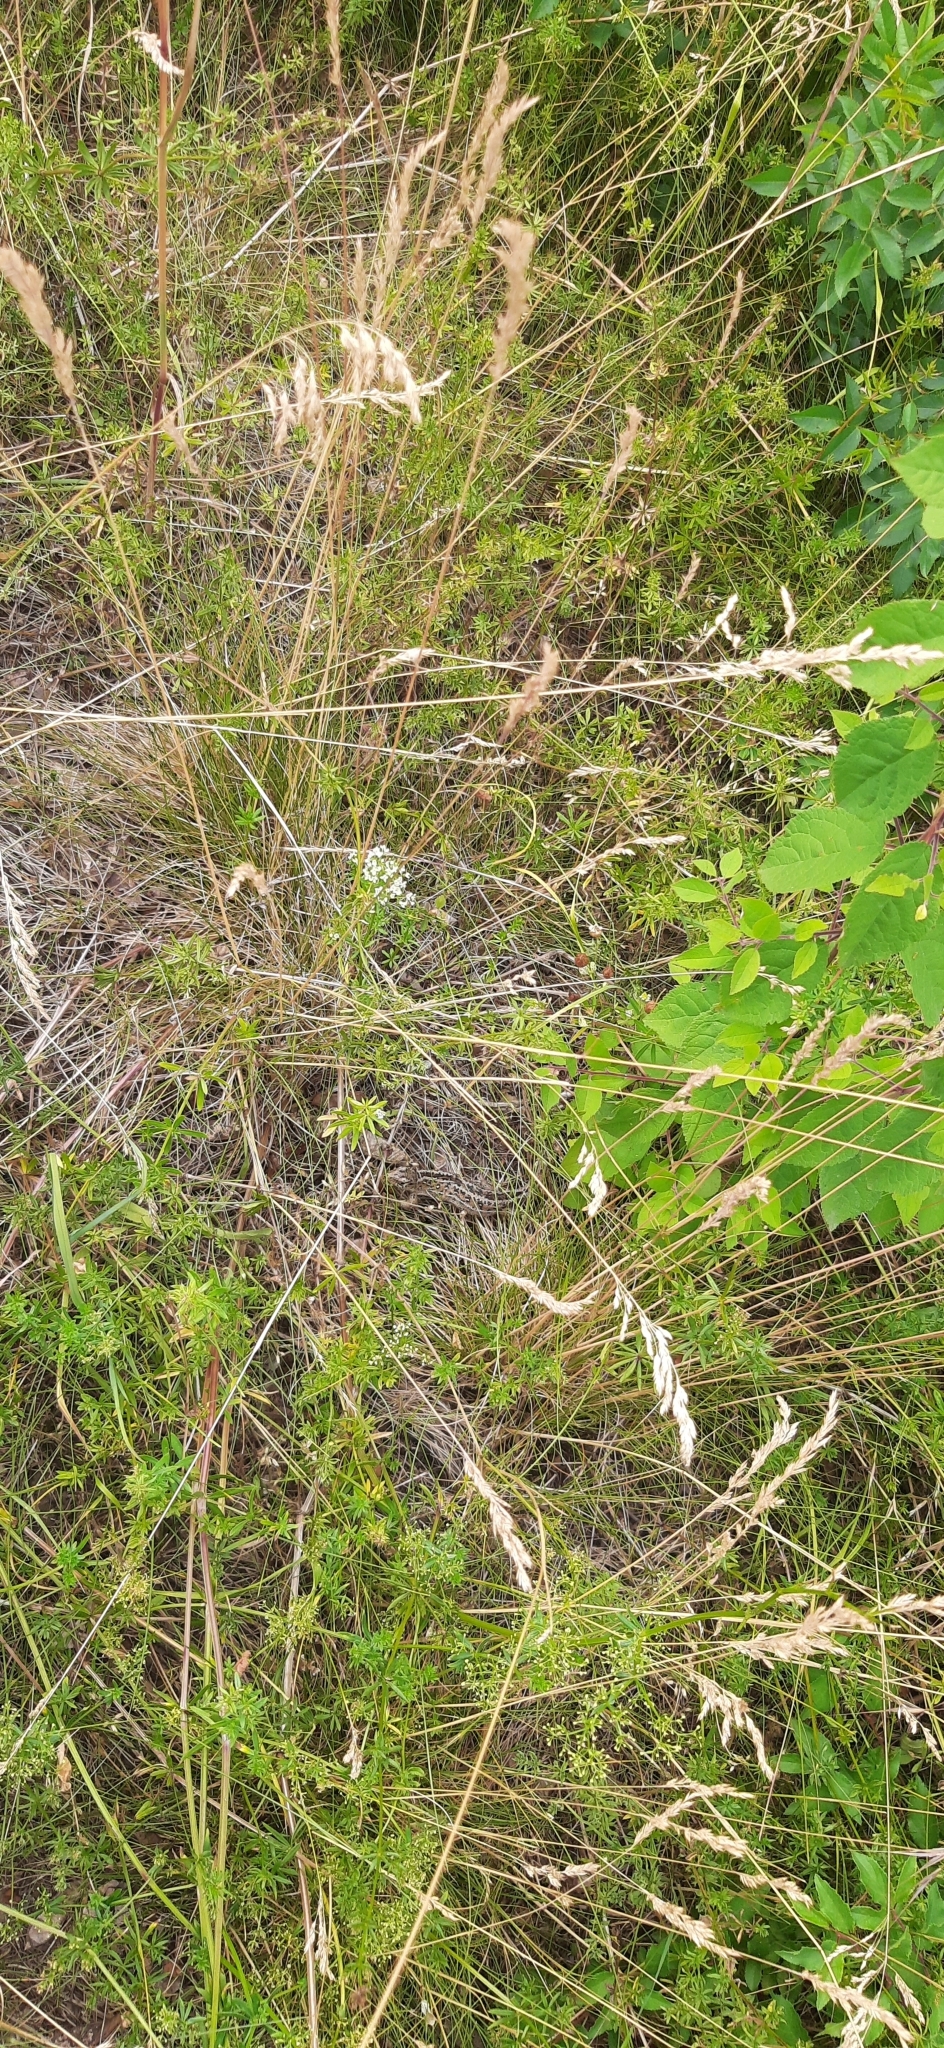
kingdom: Animalia
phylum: Chordata
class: Squamata
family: Lacertidae
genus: Lacerta
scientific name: Lacerta agilis
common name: Sand lizard
